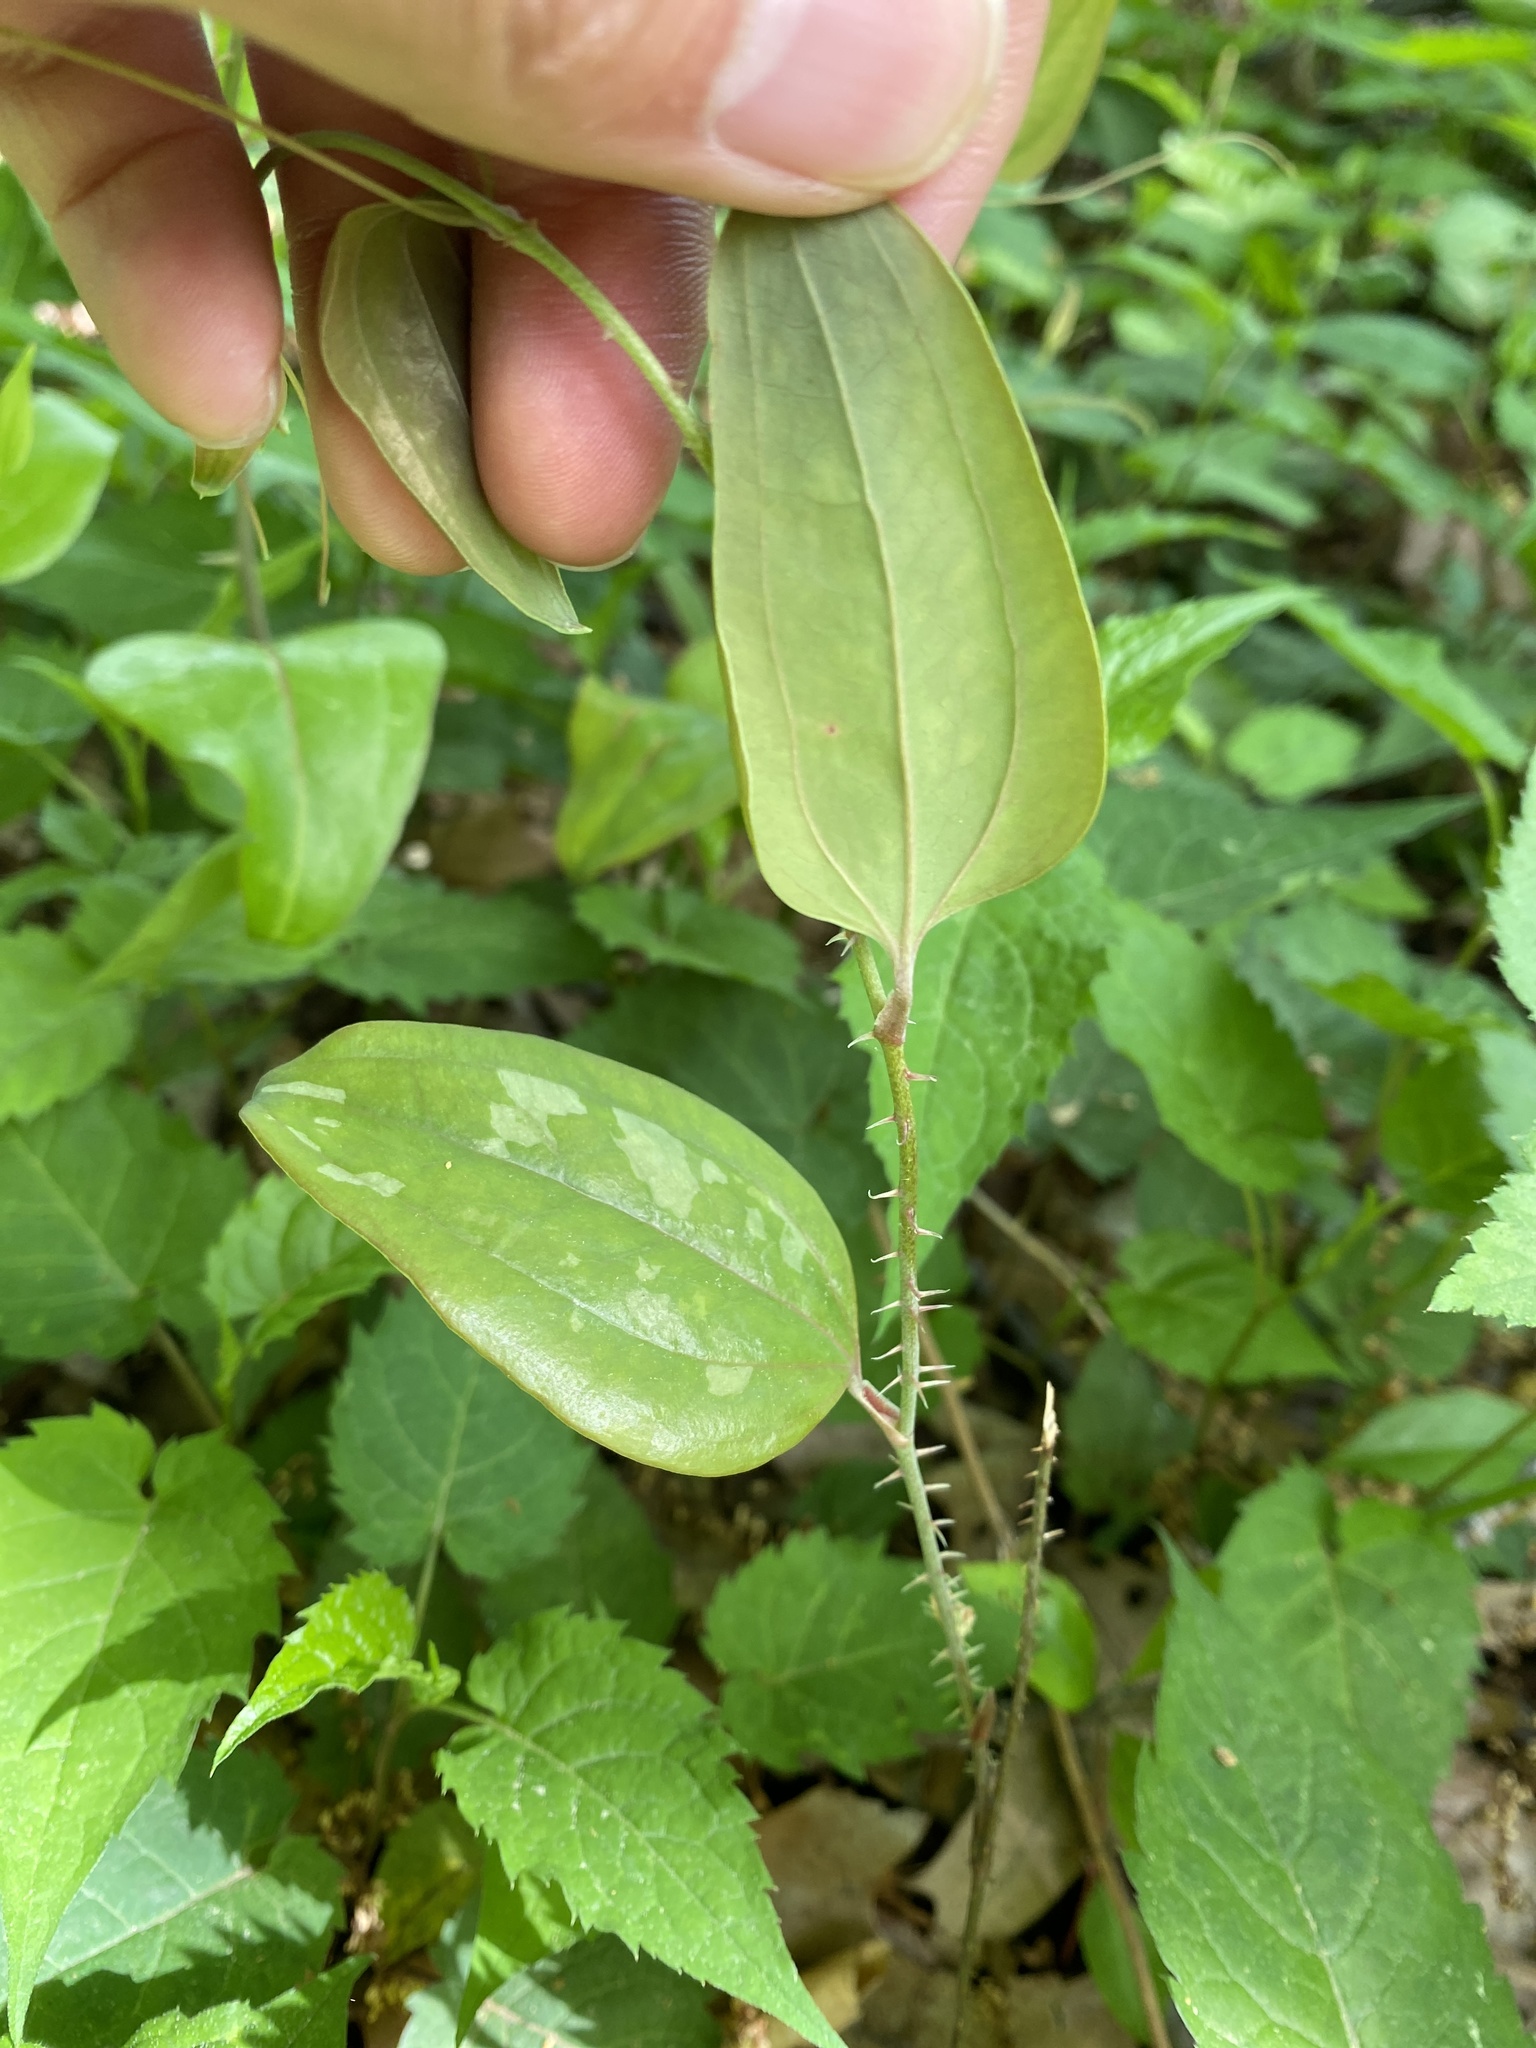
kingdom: Plantae
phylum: Tracheophyta
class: Liliopsida
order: Liliales
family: Smilacaceae
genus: Smilax
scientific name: Smilax glauca
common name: Cat greenbrier
